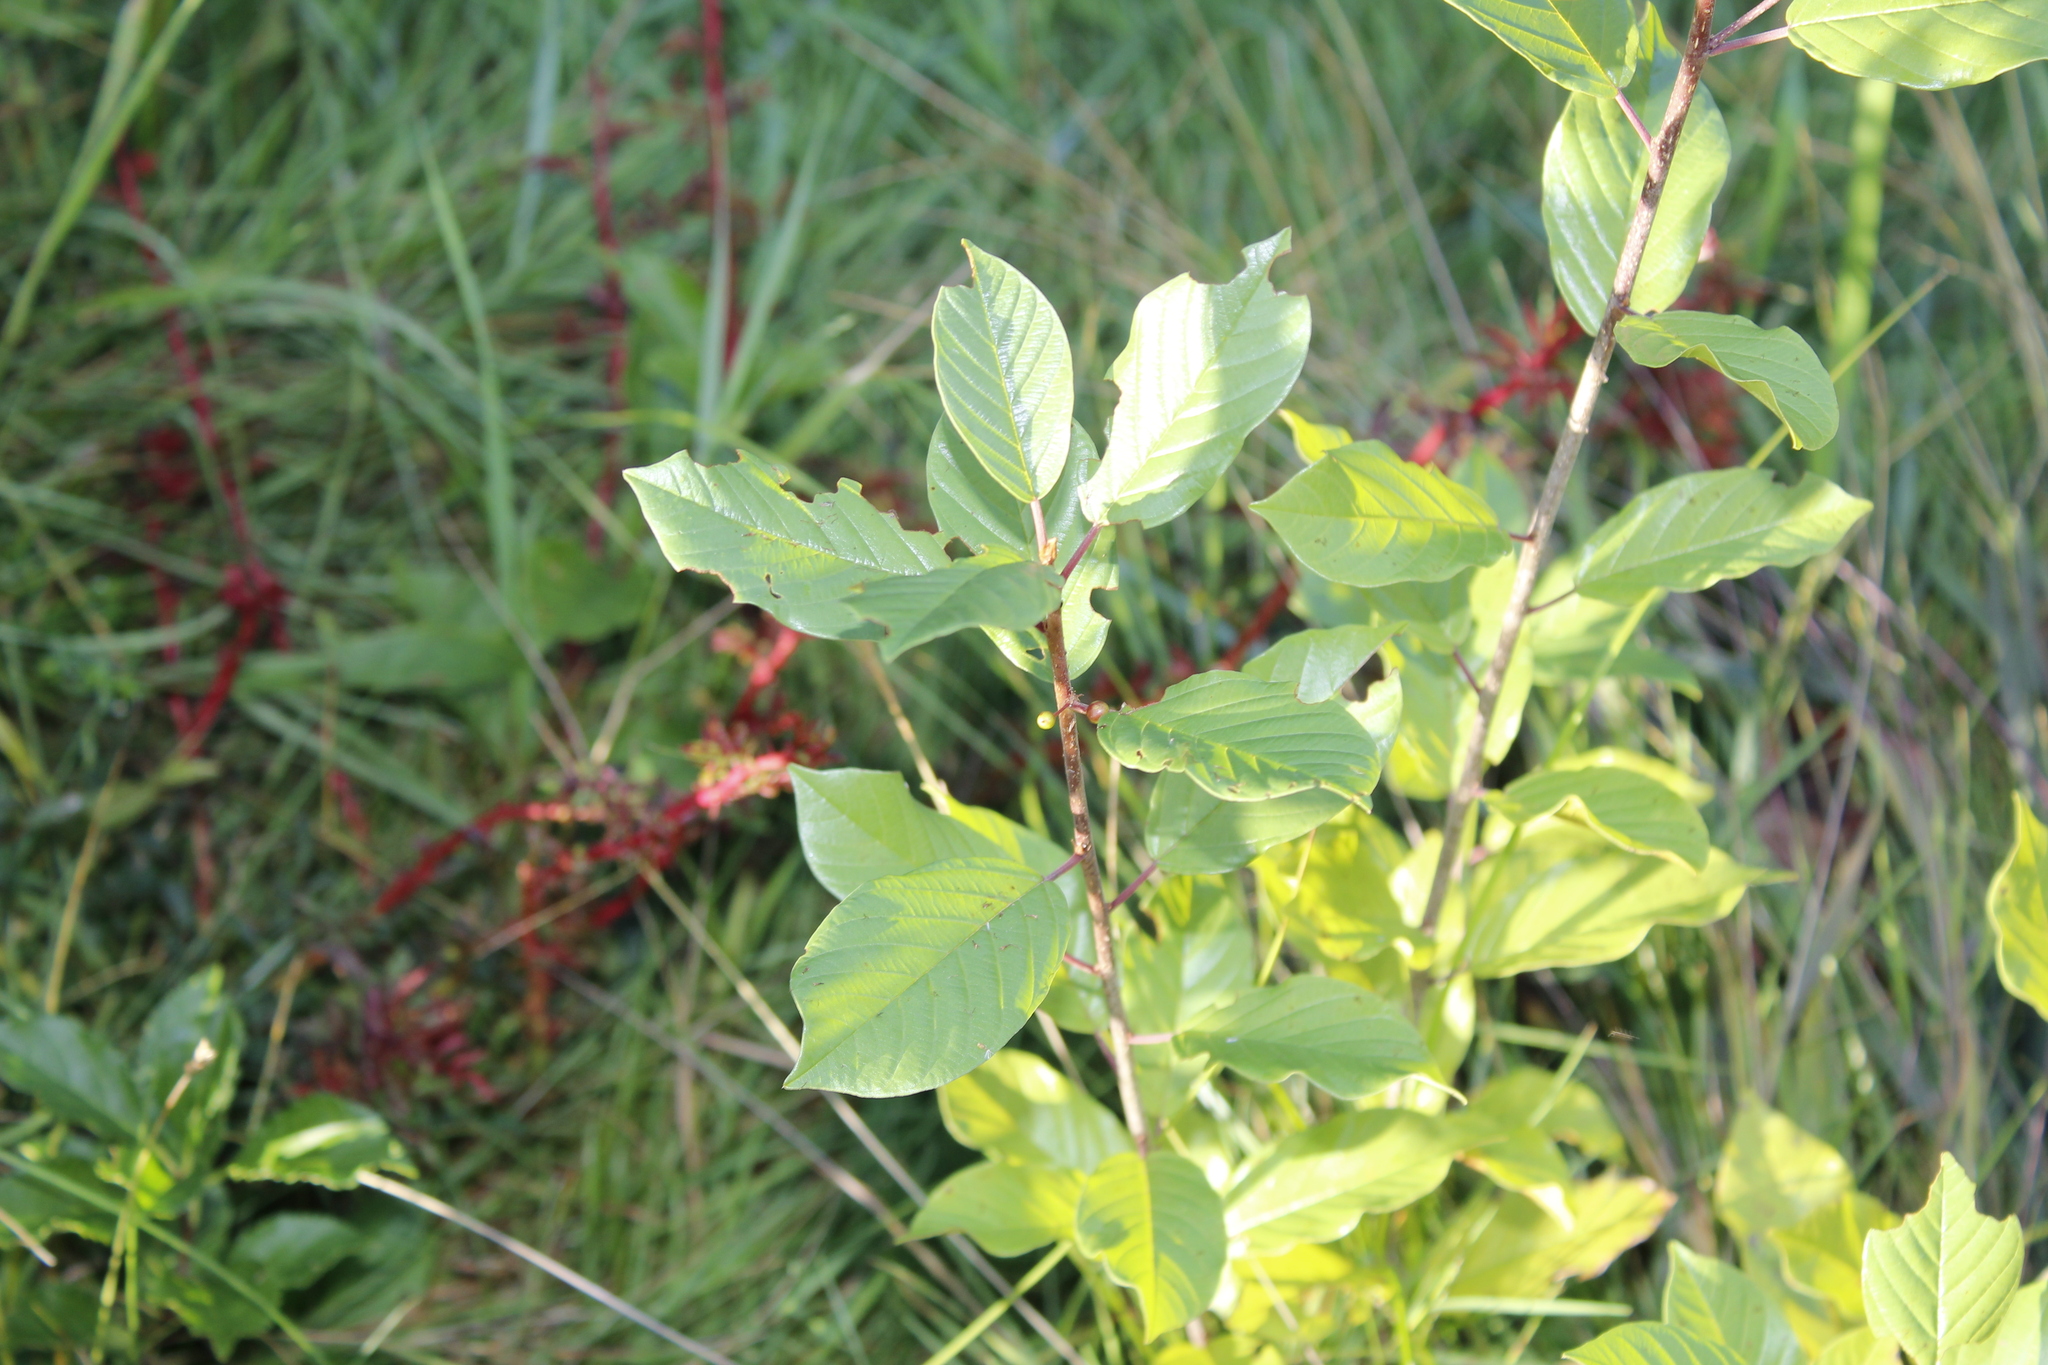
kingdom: Plantae
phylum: Tracheophyta
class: Magnoliopsida
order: Rosales
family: Rhamnaceae
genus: Frangula
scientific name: Frangula alnus
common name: Alder buckthorn
